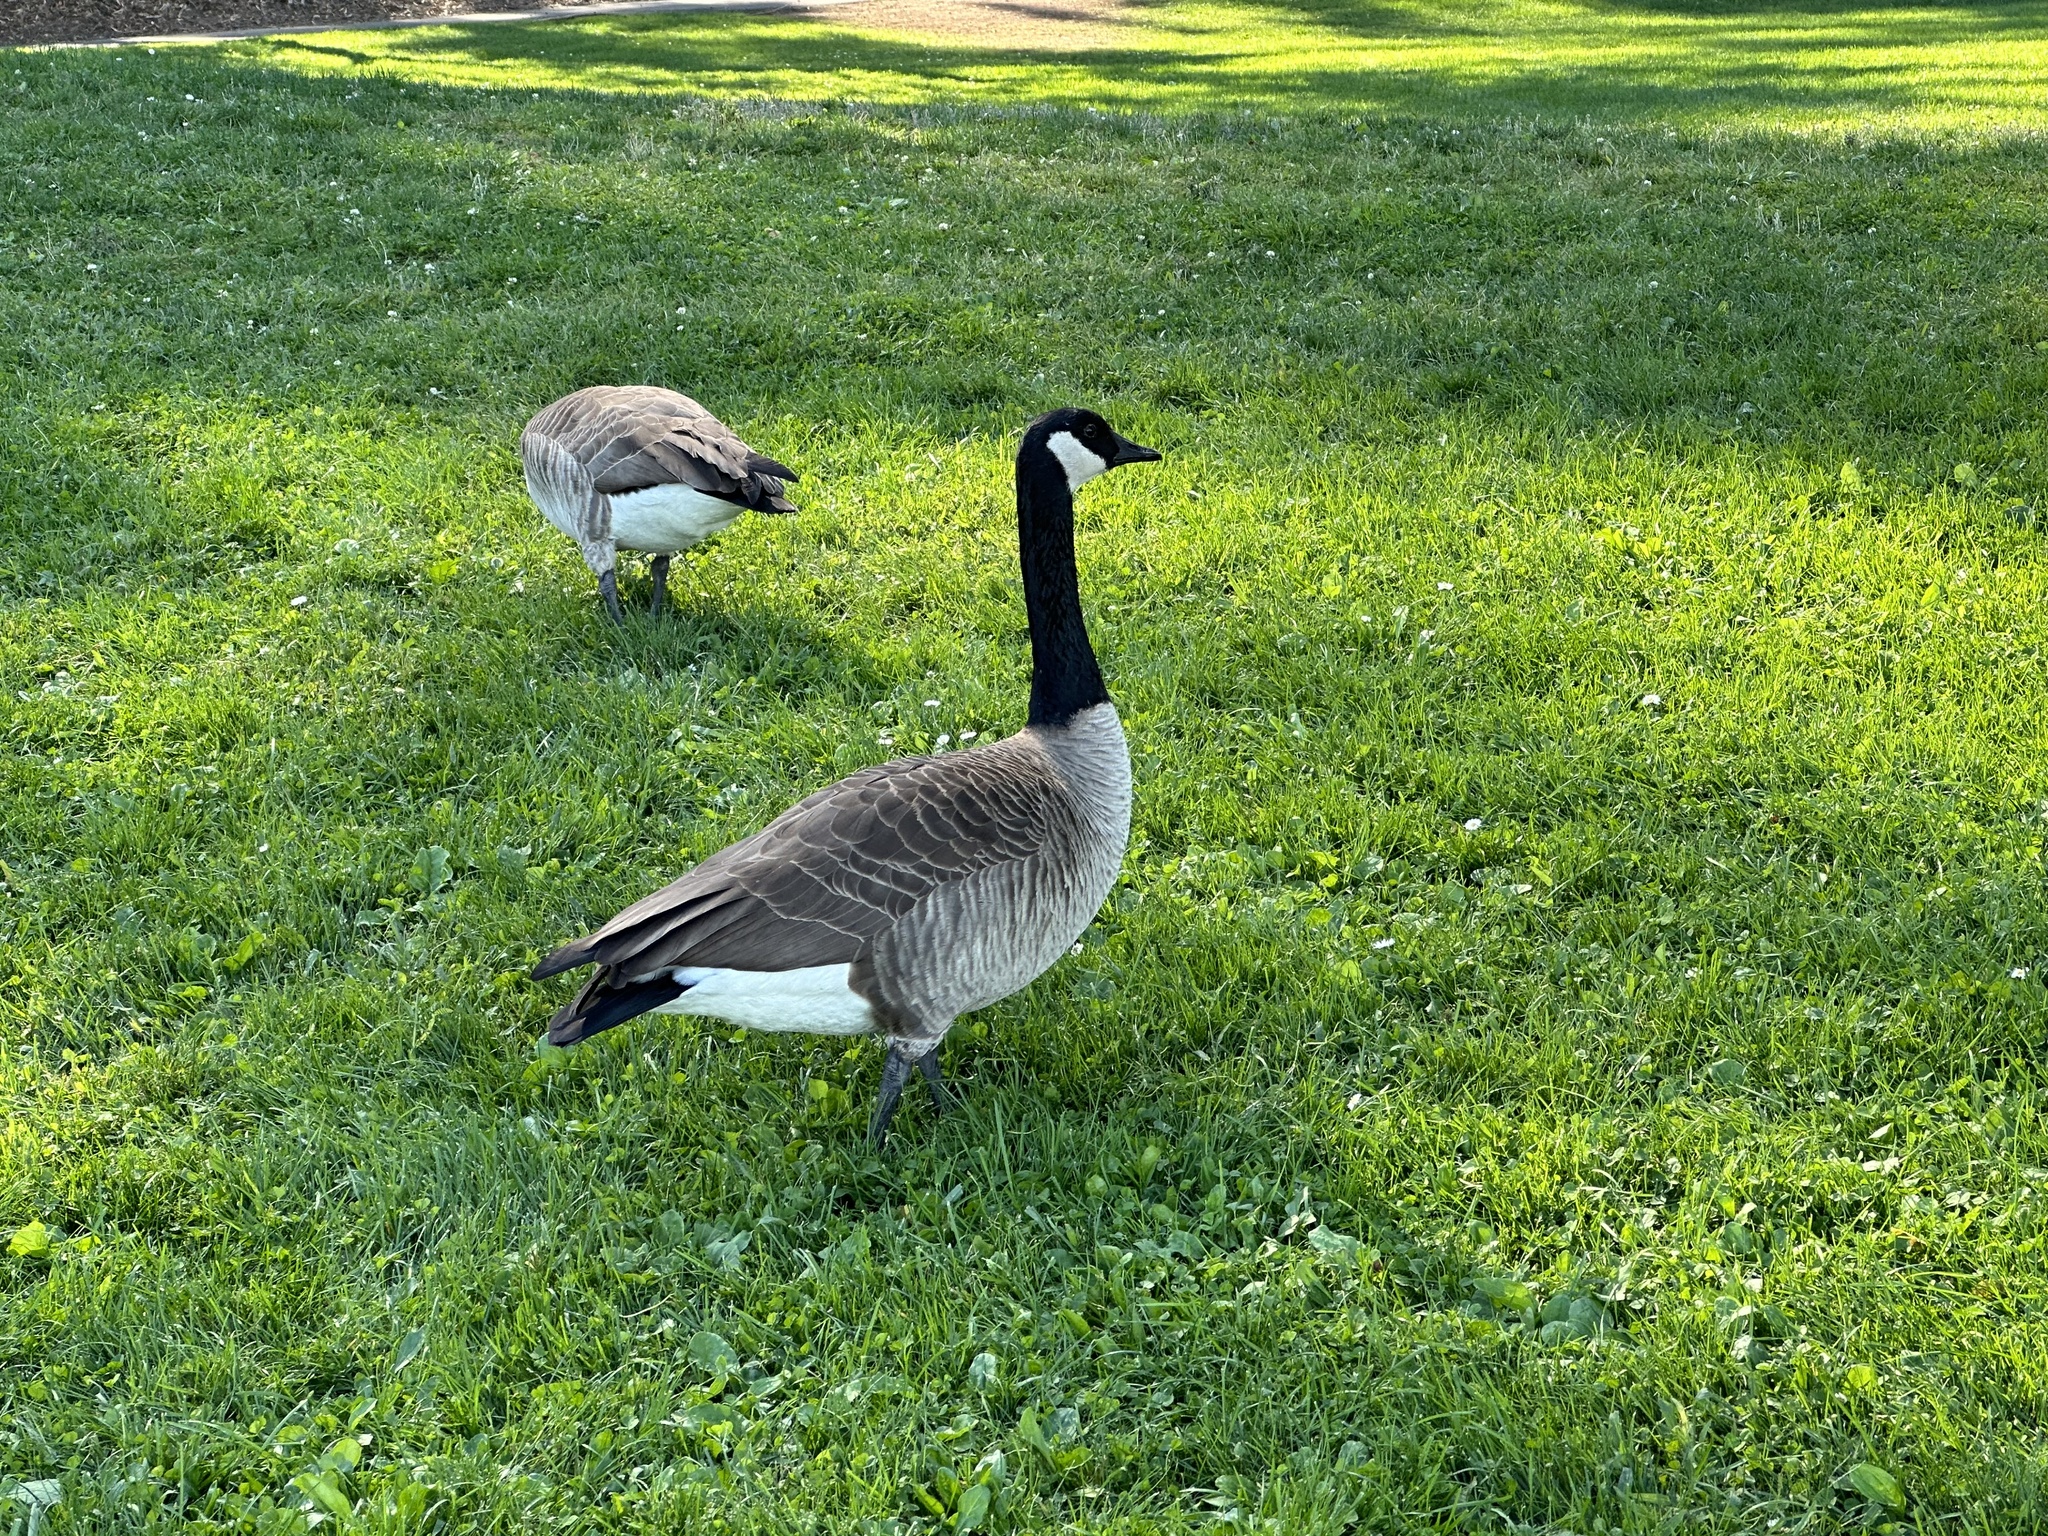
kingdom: Animalia
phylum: Chordata
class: Aves
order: Anseriformes
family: Anatidae
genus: Branta
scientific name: Branta canadensis
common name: Canada goose
